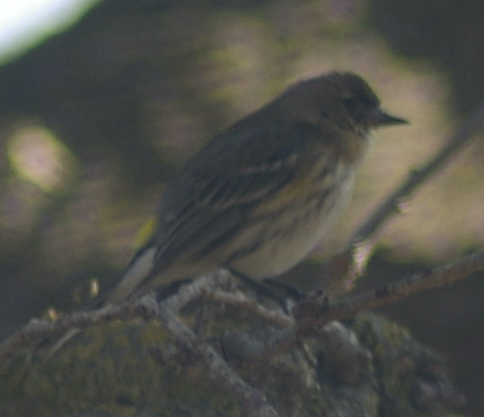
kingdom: Animalia
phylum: Chordata
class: Aves
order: Passeriformes
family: Parulidae
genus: Setophaga
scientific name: Setophaga coronata
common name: Myrtle warbler
